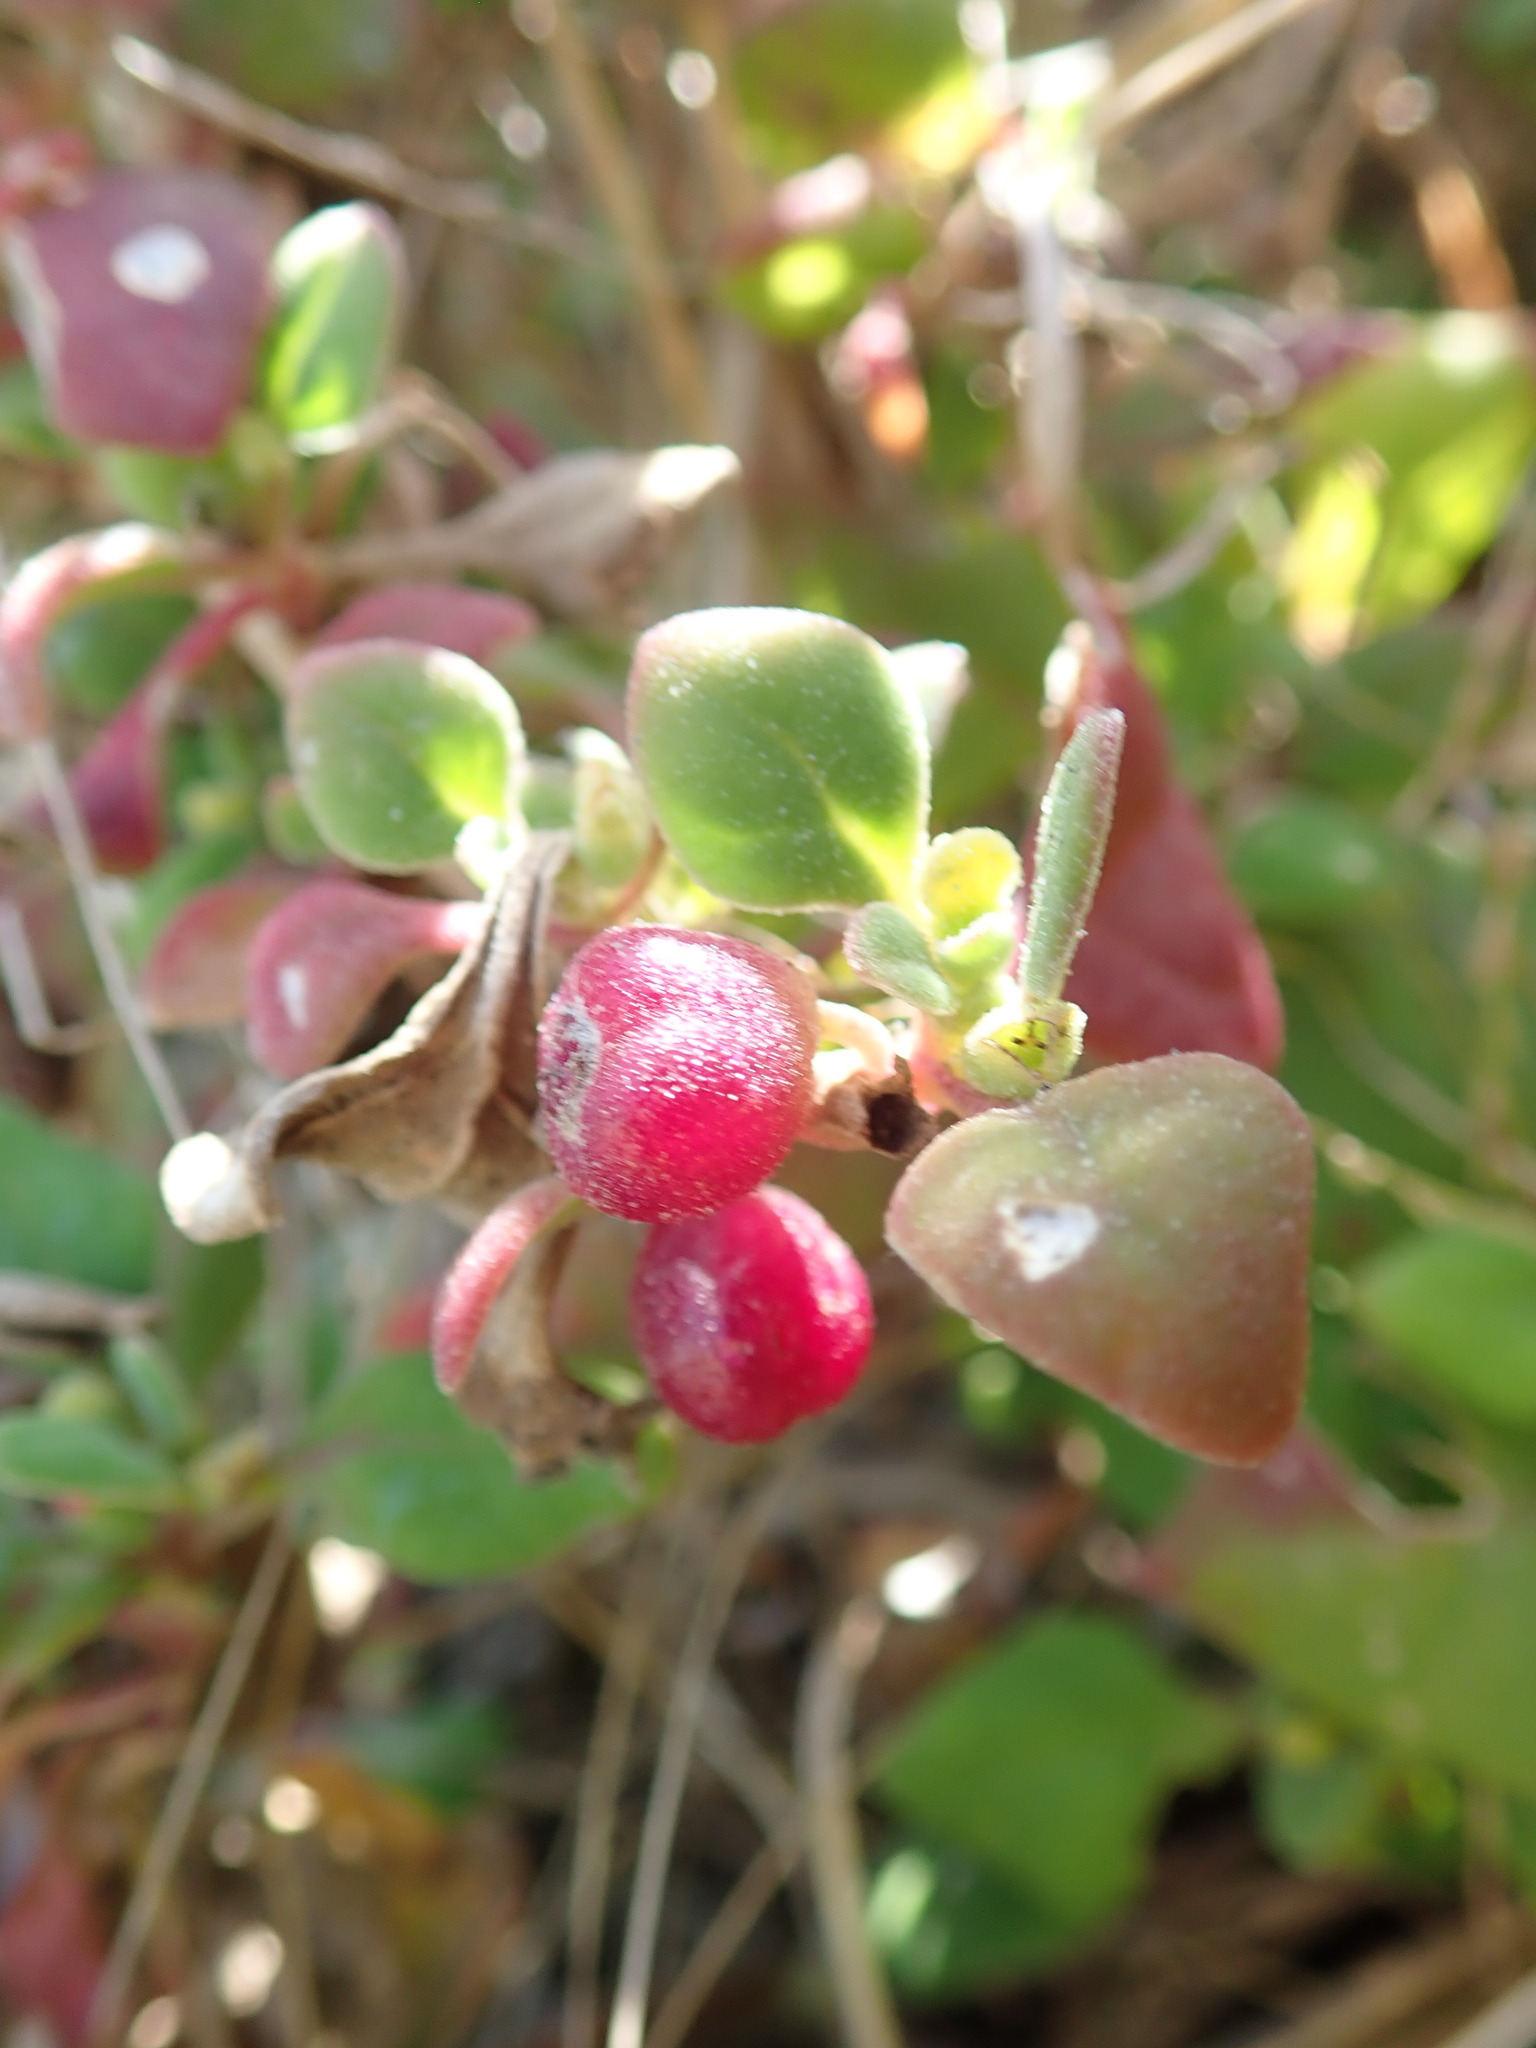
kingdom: Plantae
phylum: Tracheophyta
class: Magnoliopsida
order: Caryophyllales
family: Aizoaceae
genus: Tetragonia
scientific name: Tetragonia implexicoma
